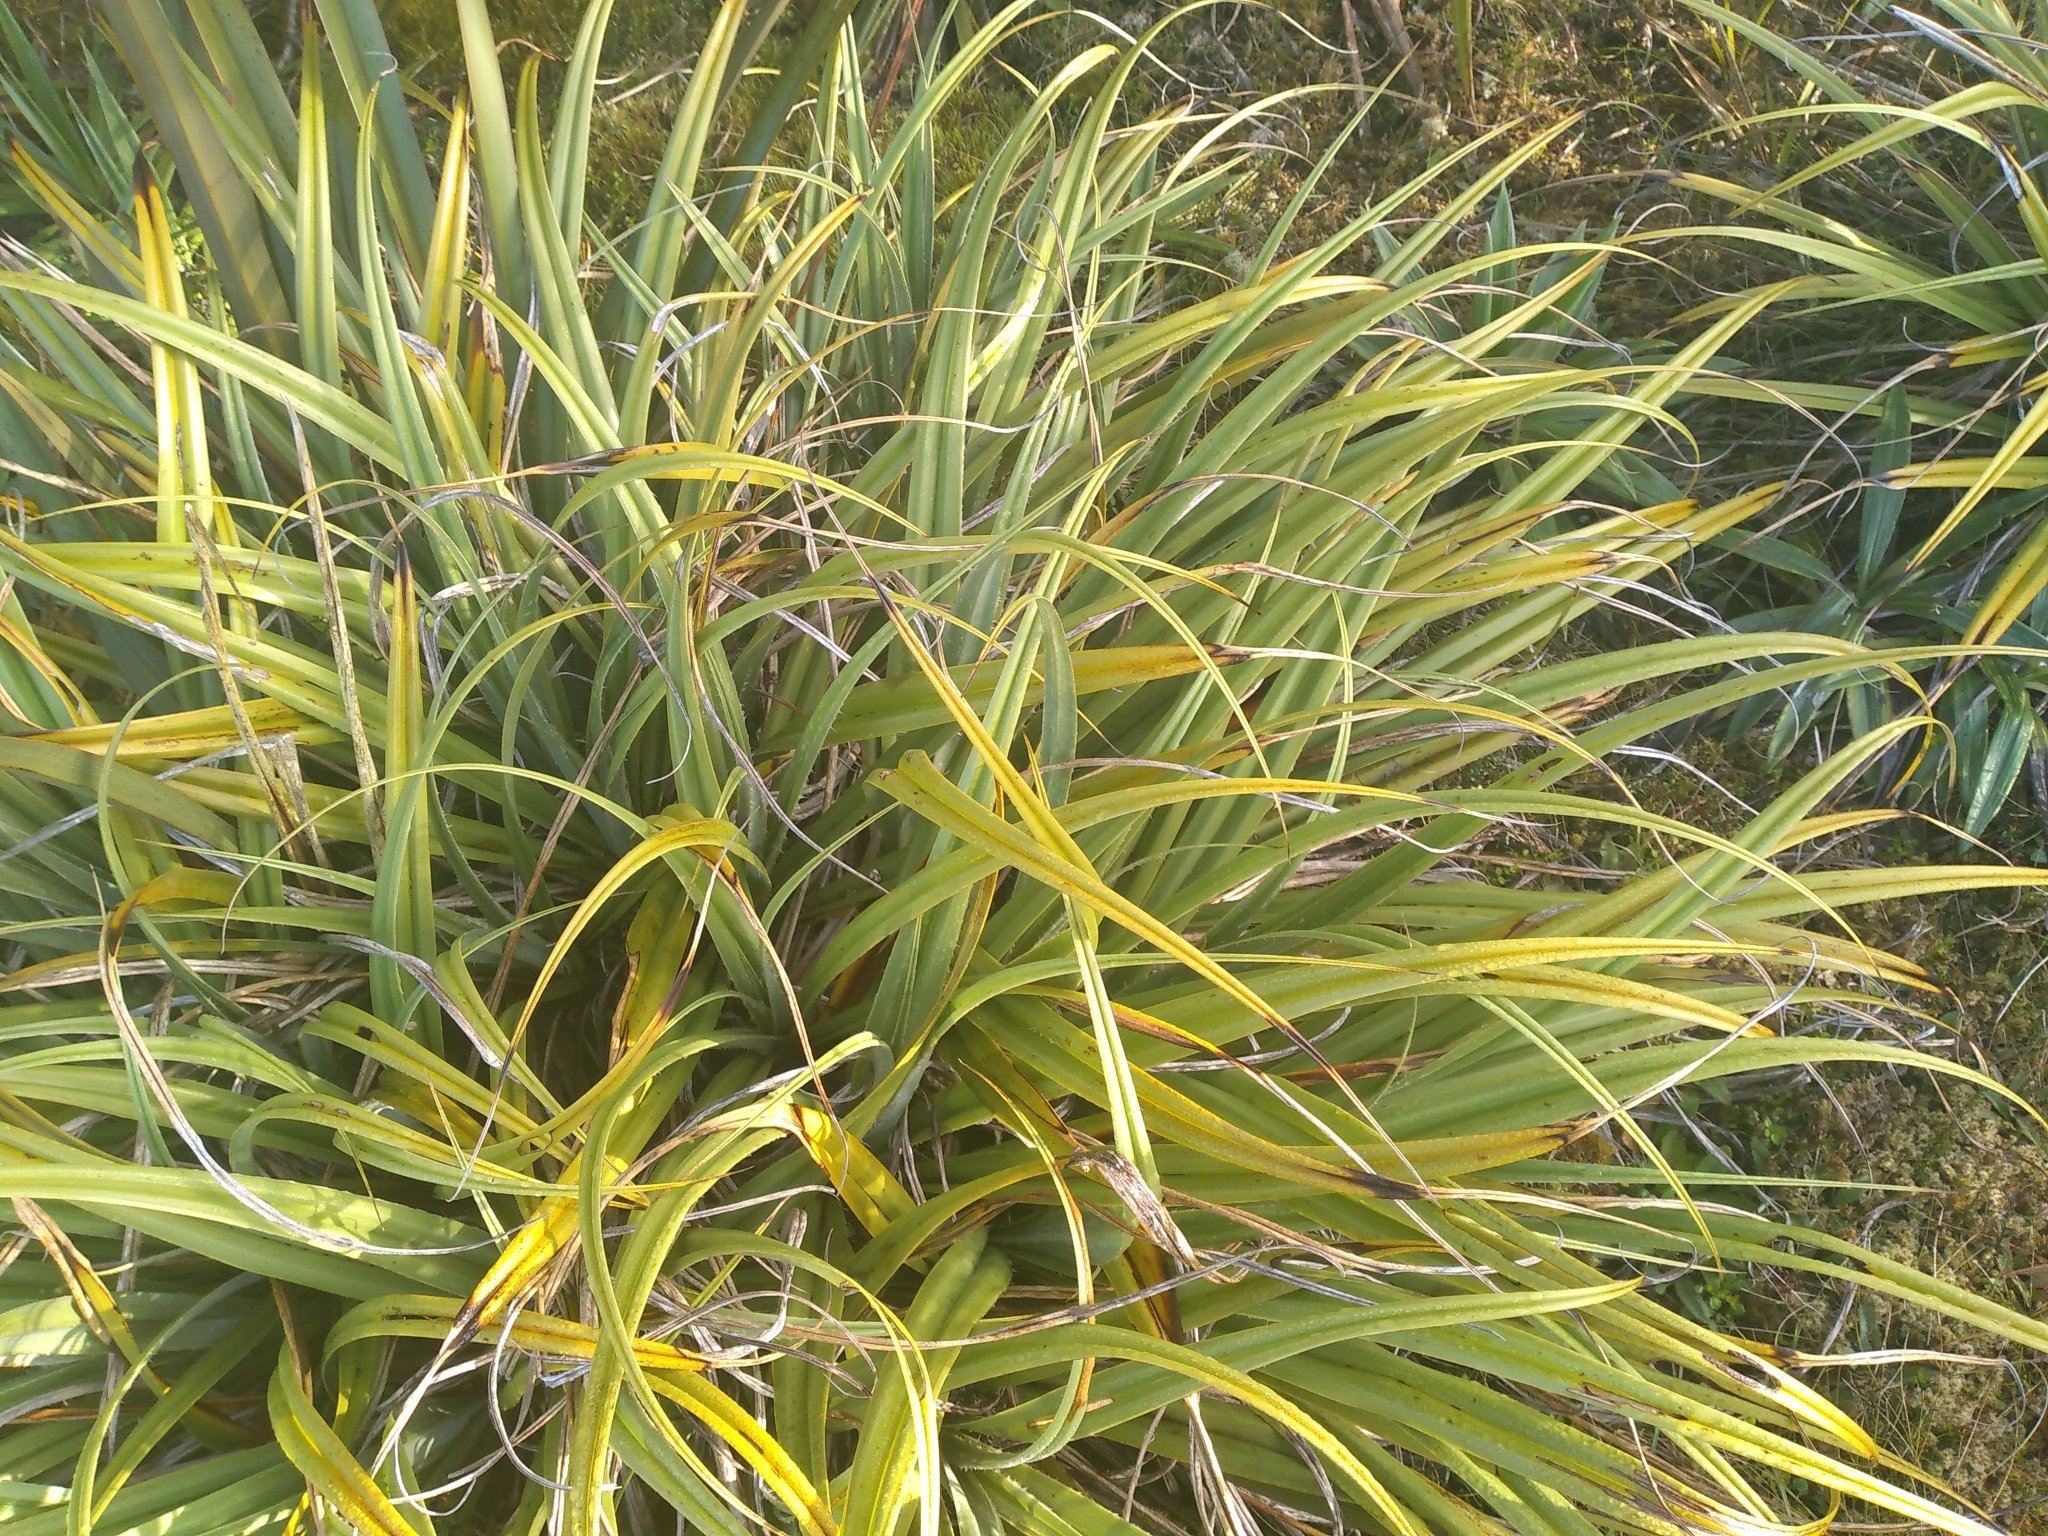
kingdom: Plantae
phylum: Tracheophyta
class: Liliopsida
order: Asparagales
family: Asteliaceae
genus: Astelia
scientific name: Astelia skottsbergii
